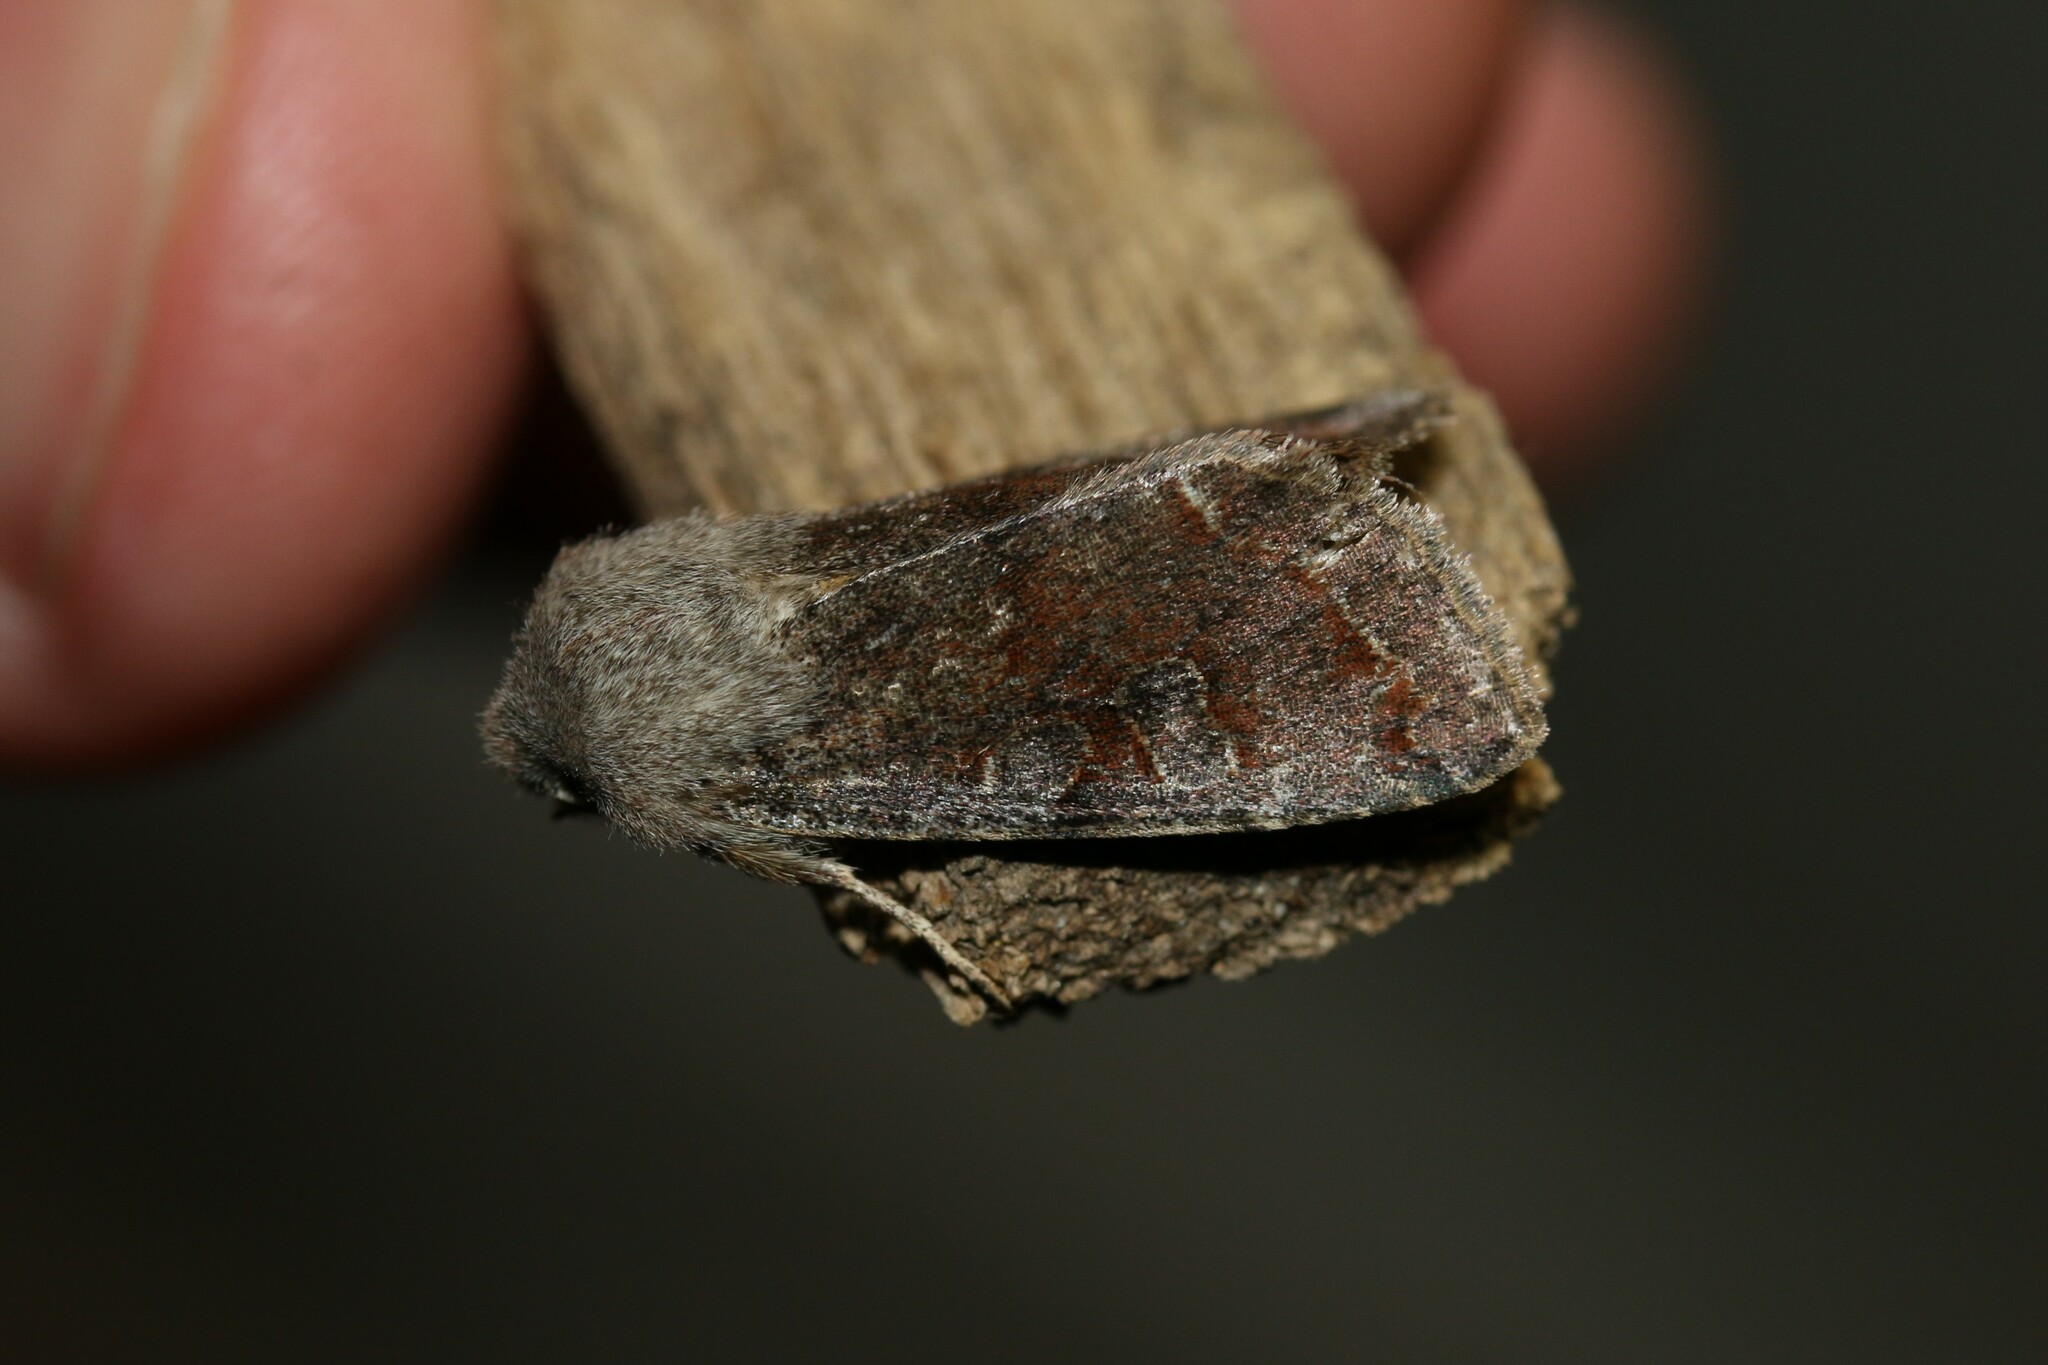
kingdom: Animalia
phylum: Arthropoda
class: Insecta
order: Lepidoptera
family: Noctuidae
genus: Orthosia
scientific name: Orthosia incerta
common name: Clouded drab
